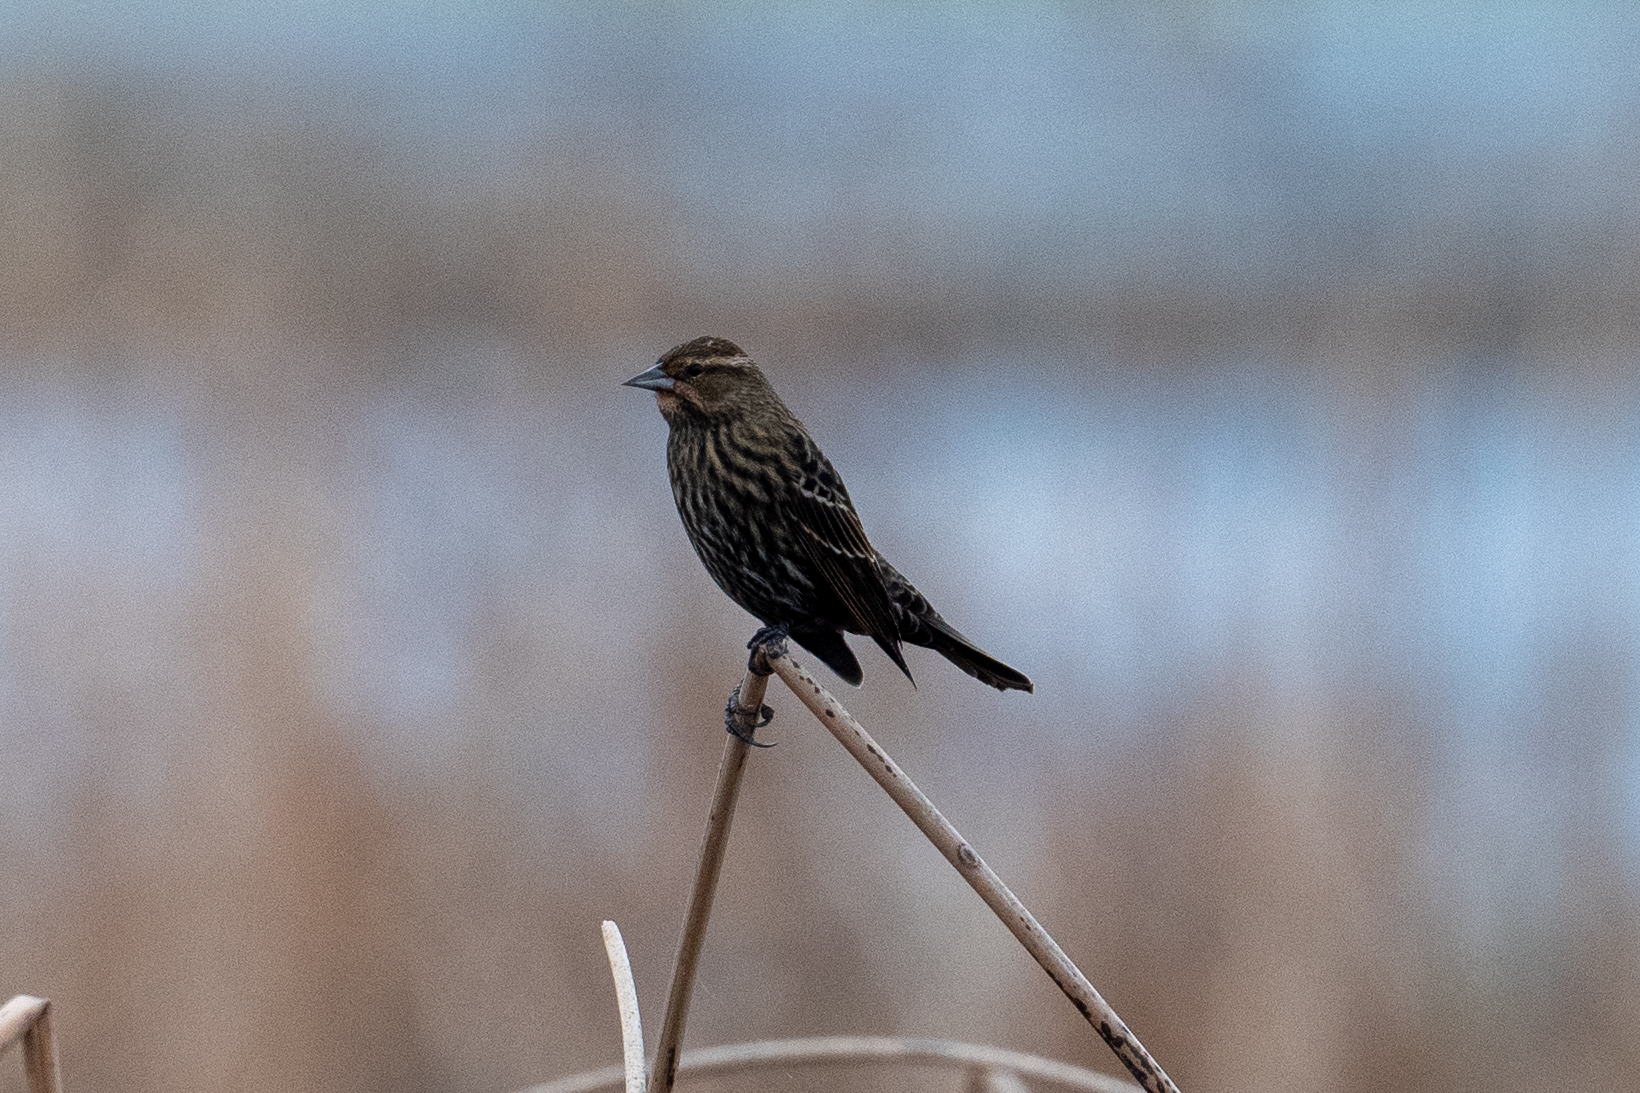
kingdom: Animalia
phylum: Chordata
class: Aves
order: Passeriformes
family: Icteridae
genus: Agelaius
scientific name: Agelaius phoeniceus
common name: Red-winged blackbird
